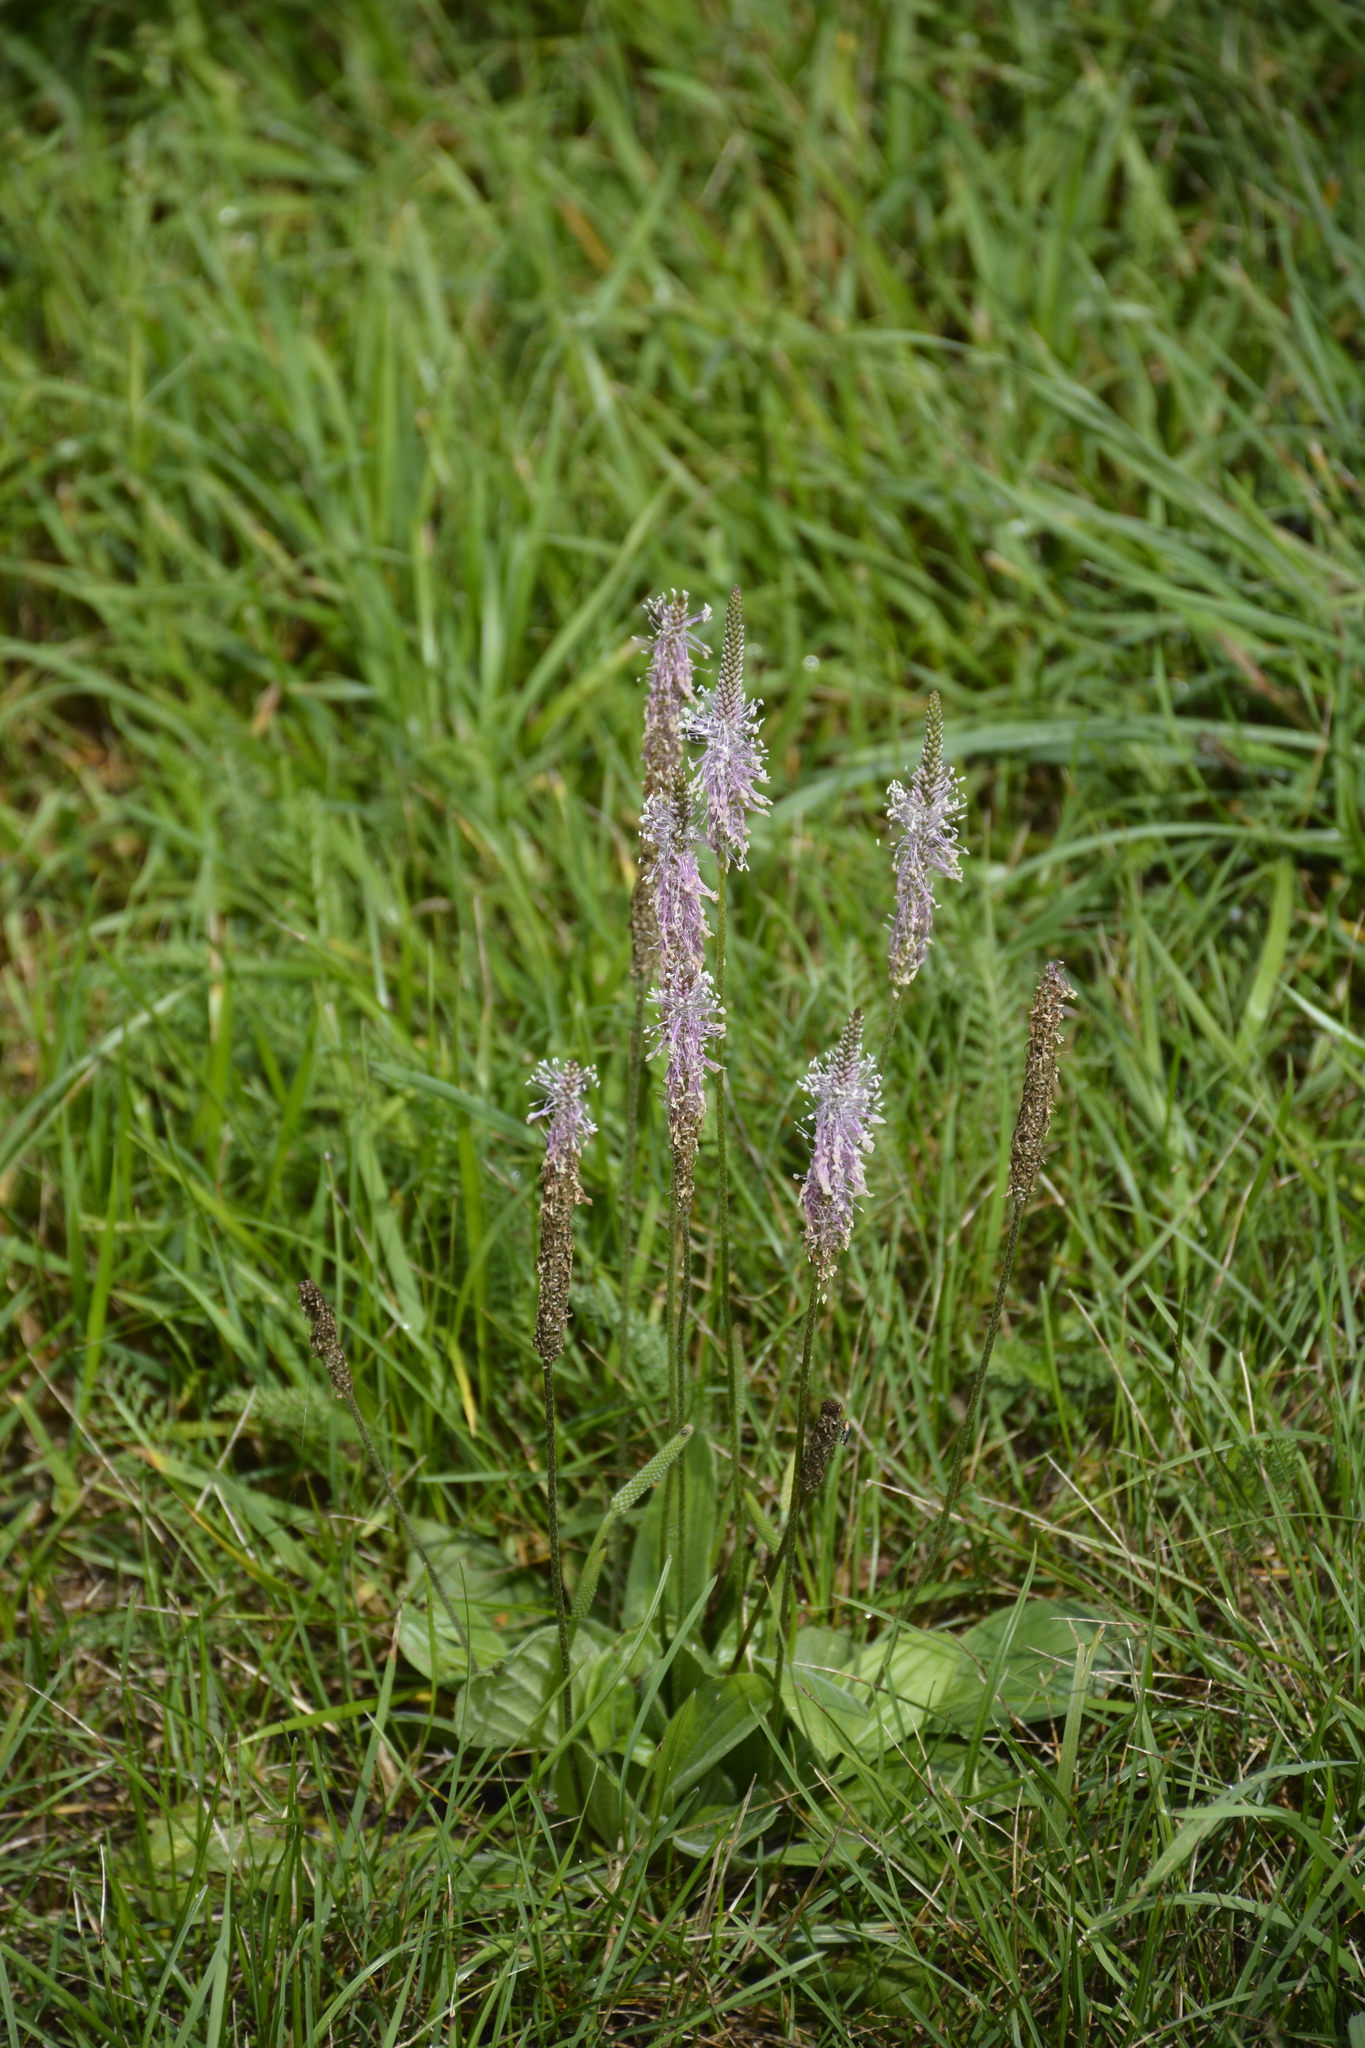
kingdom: Plantae
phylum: Tracheophyta
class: Magnoliopsida
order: Lamiales
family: Plantaginaceae
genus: Plantago
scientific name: Plantago media
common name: Hoary plantain
